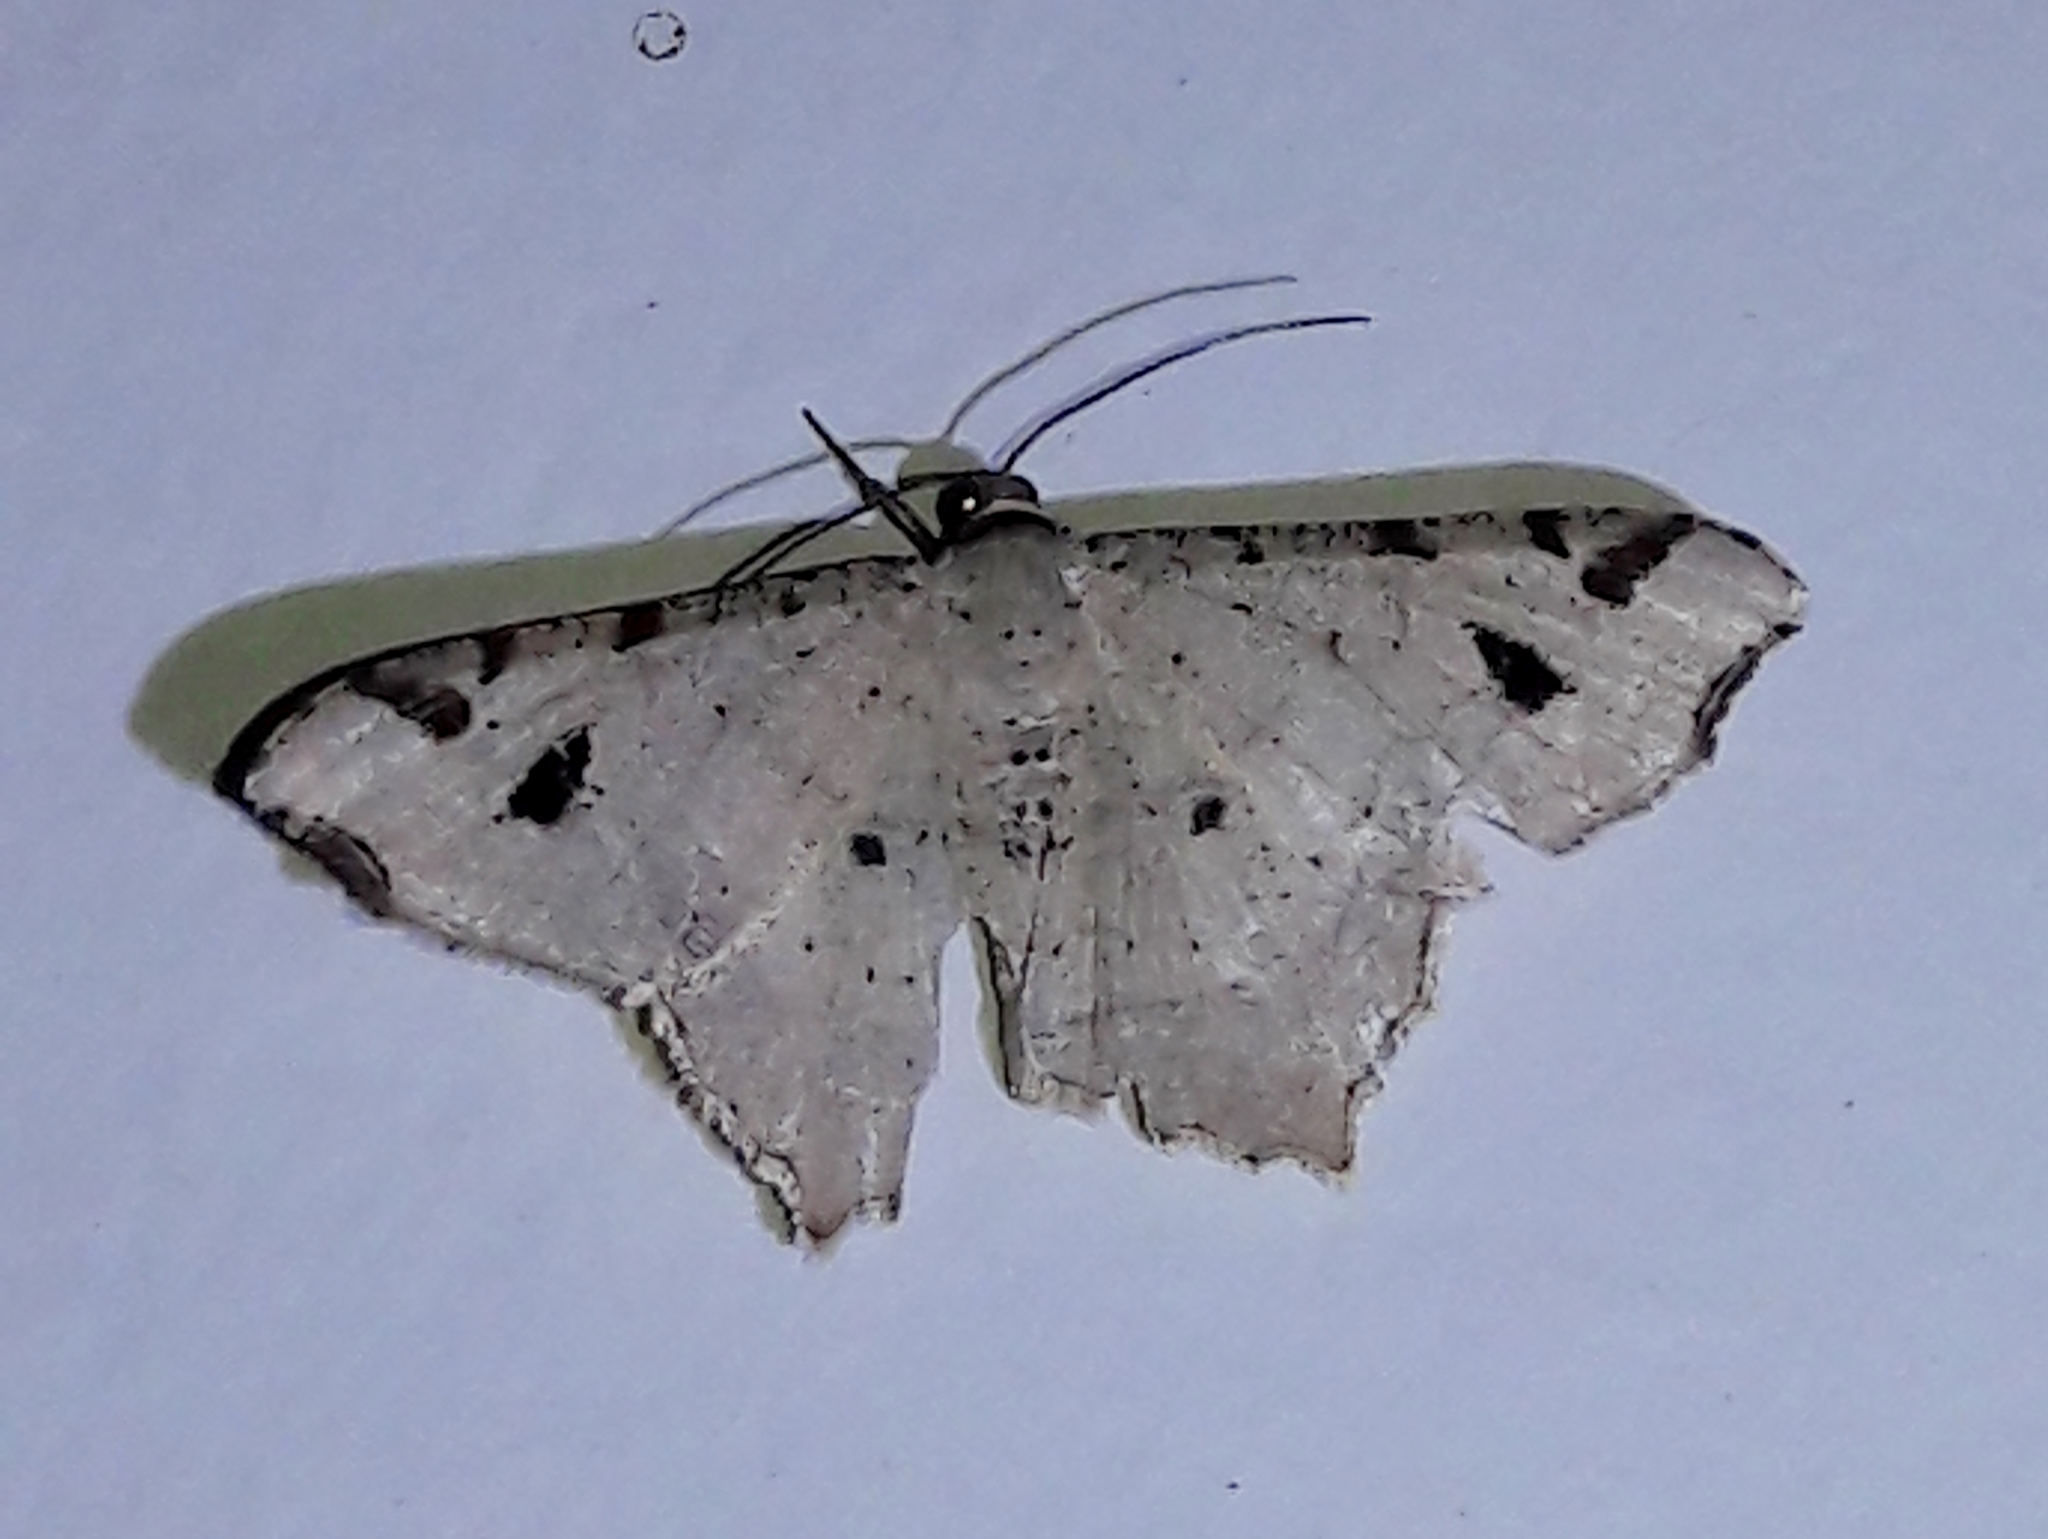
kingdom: Animalia
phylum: Arthropoda
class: Insecta
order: Lepidoptera
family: Geometridae
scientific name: Geometridae
